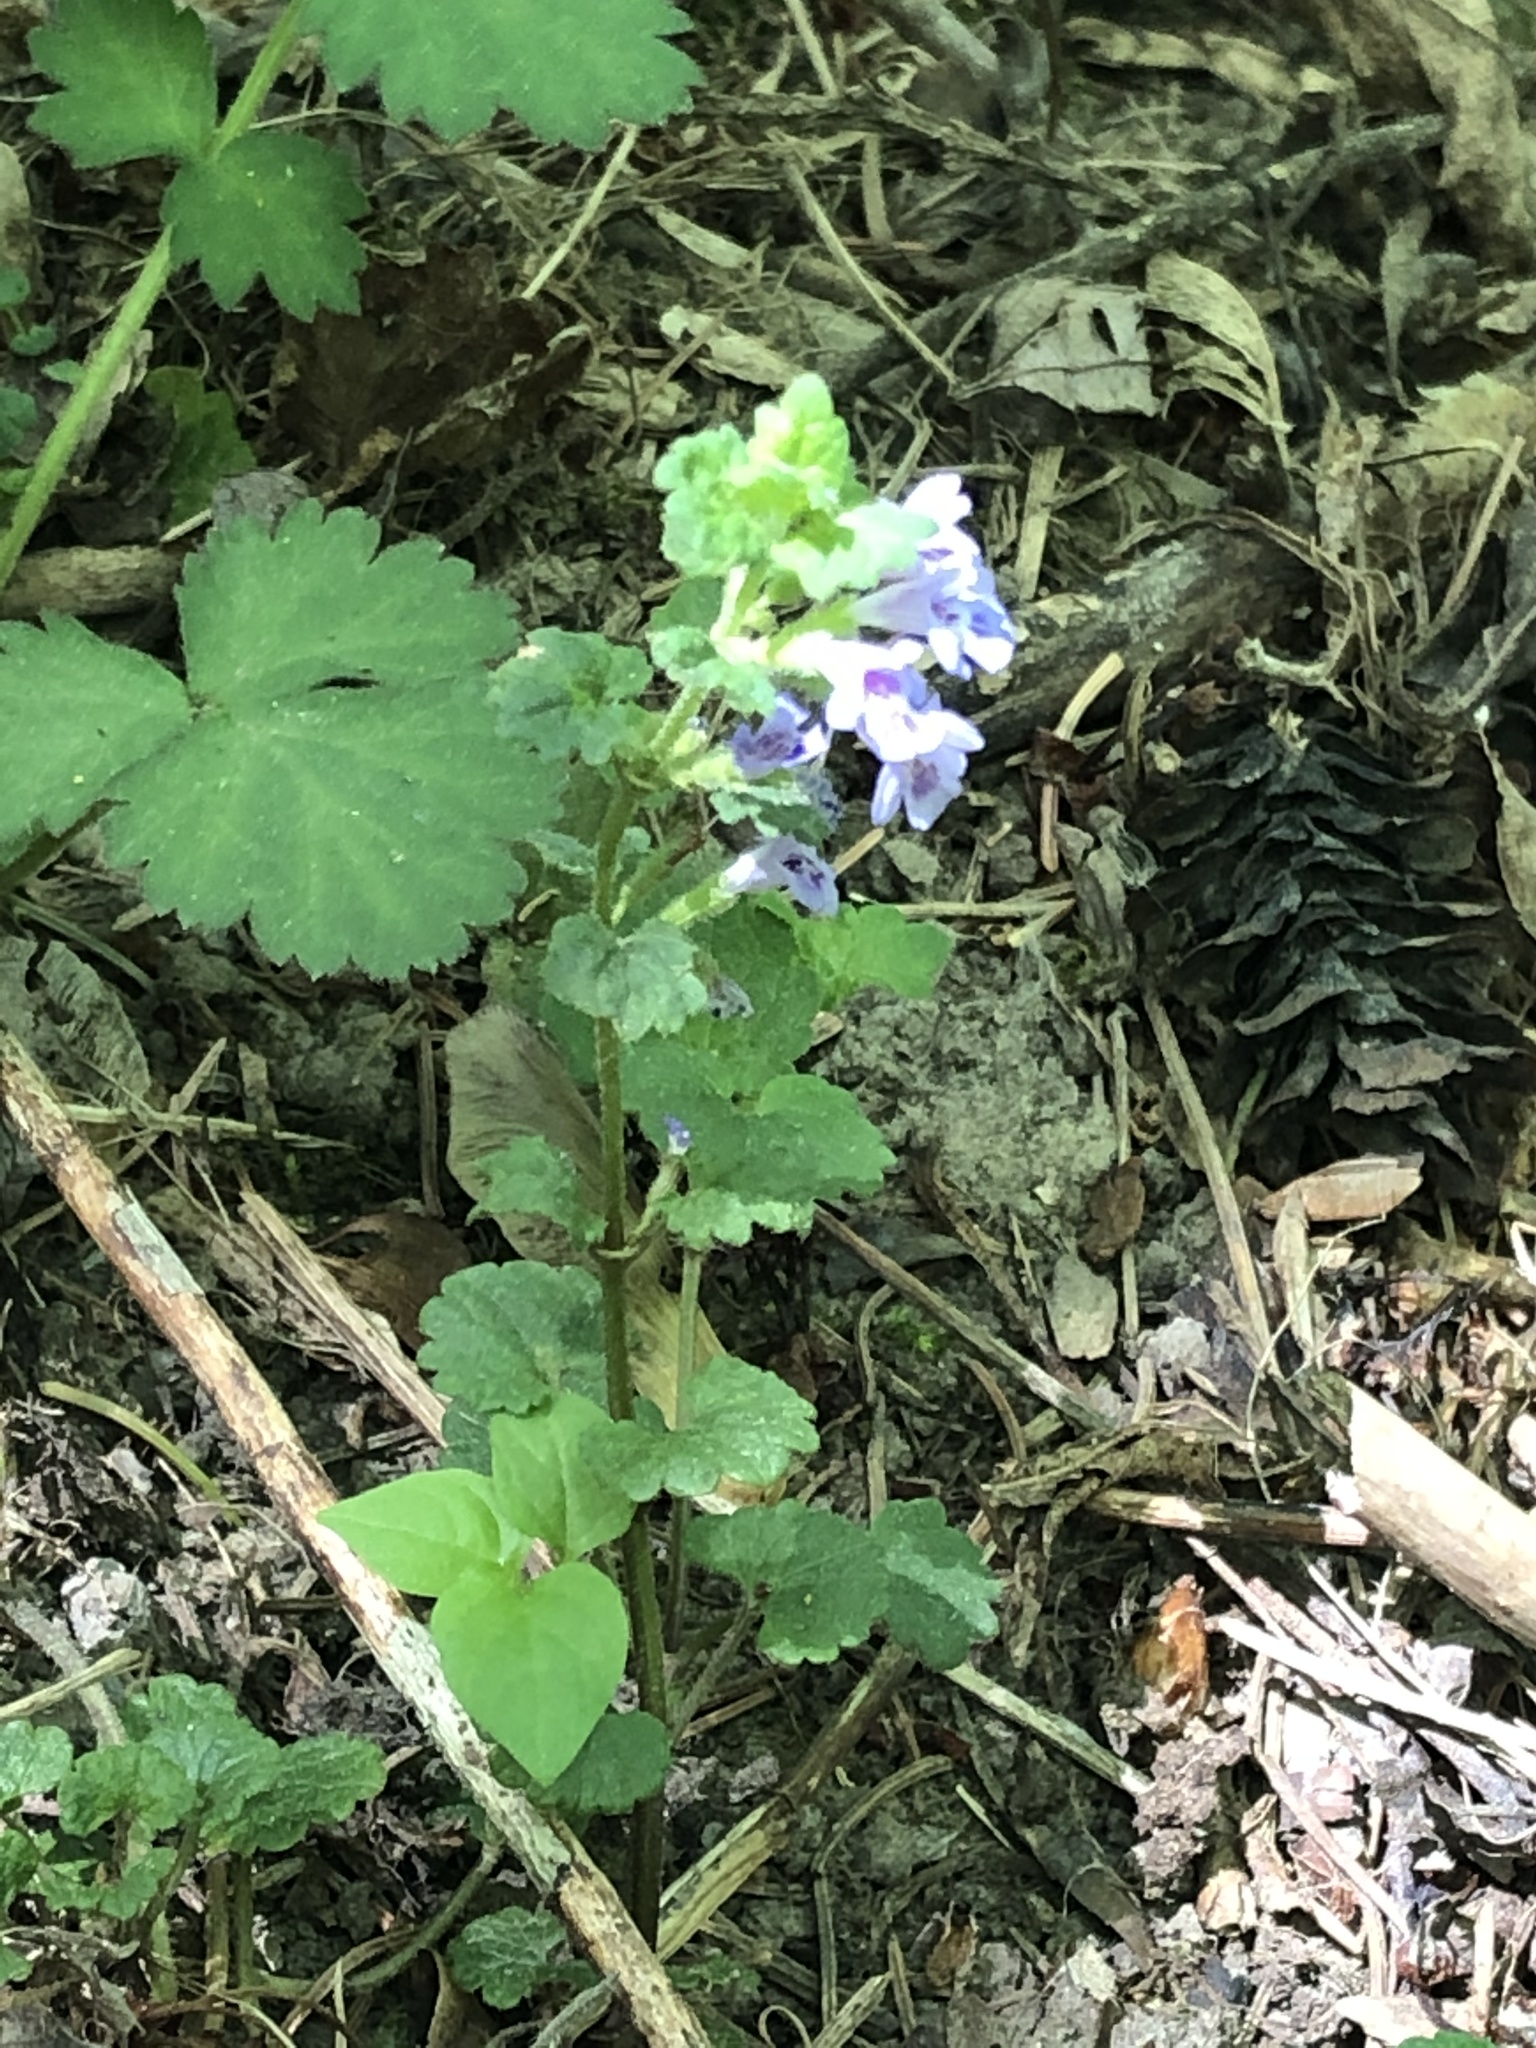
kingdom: Plantae
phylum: Tracheophyta
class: Magnoliopsida
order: Lamiales
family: Lamiaceae
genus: Glechoma
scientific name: Glechoma hederacea
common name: Ground ivy
